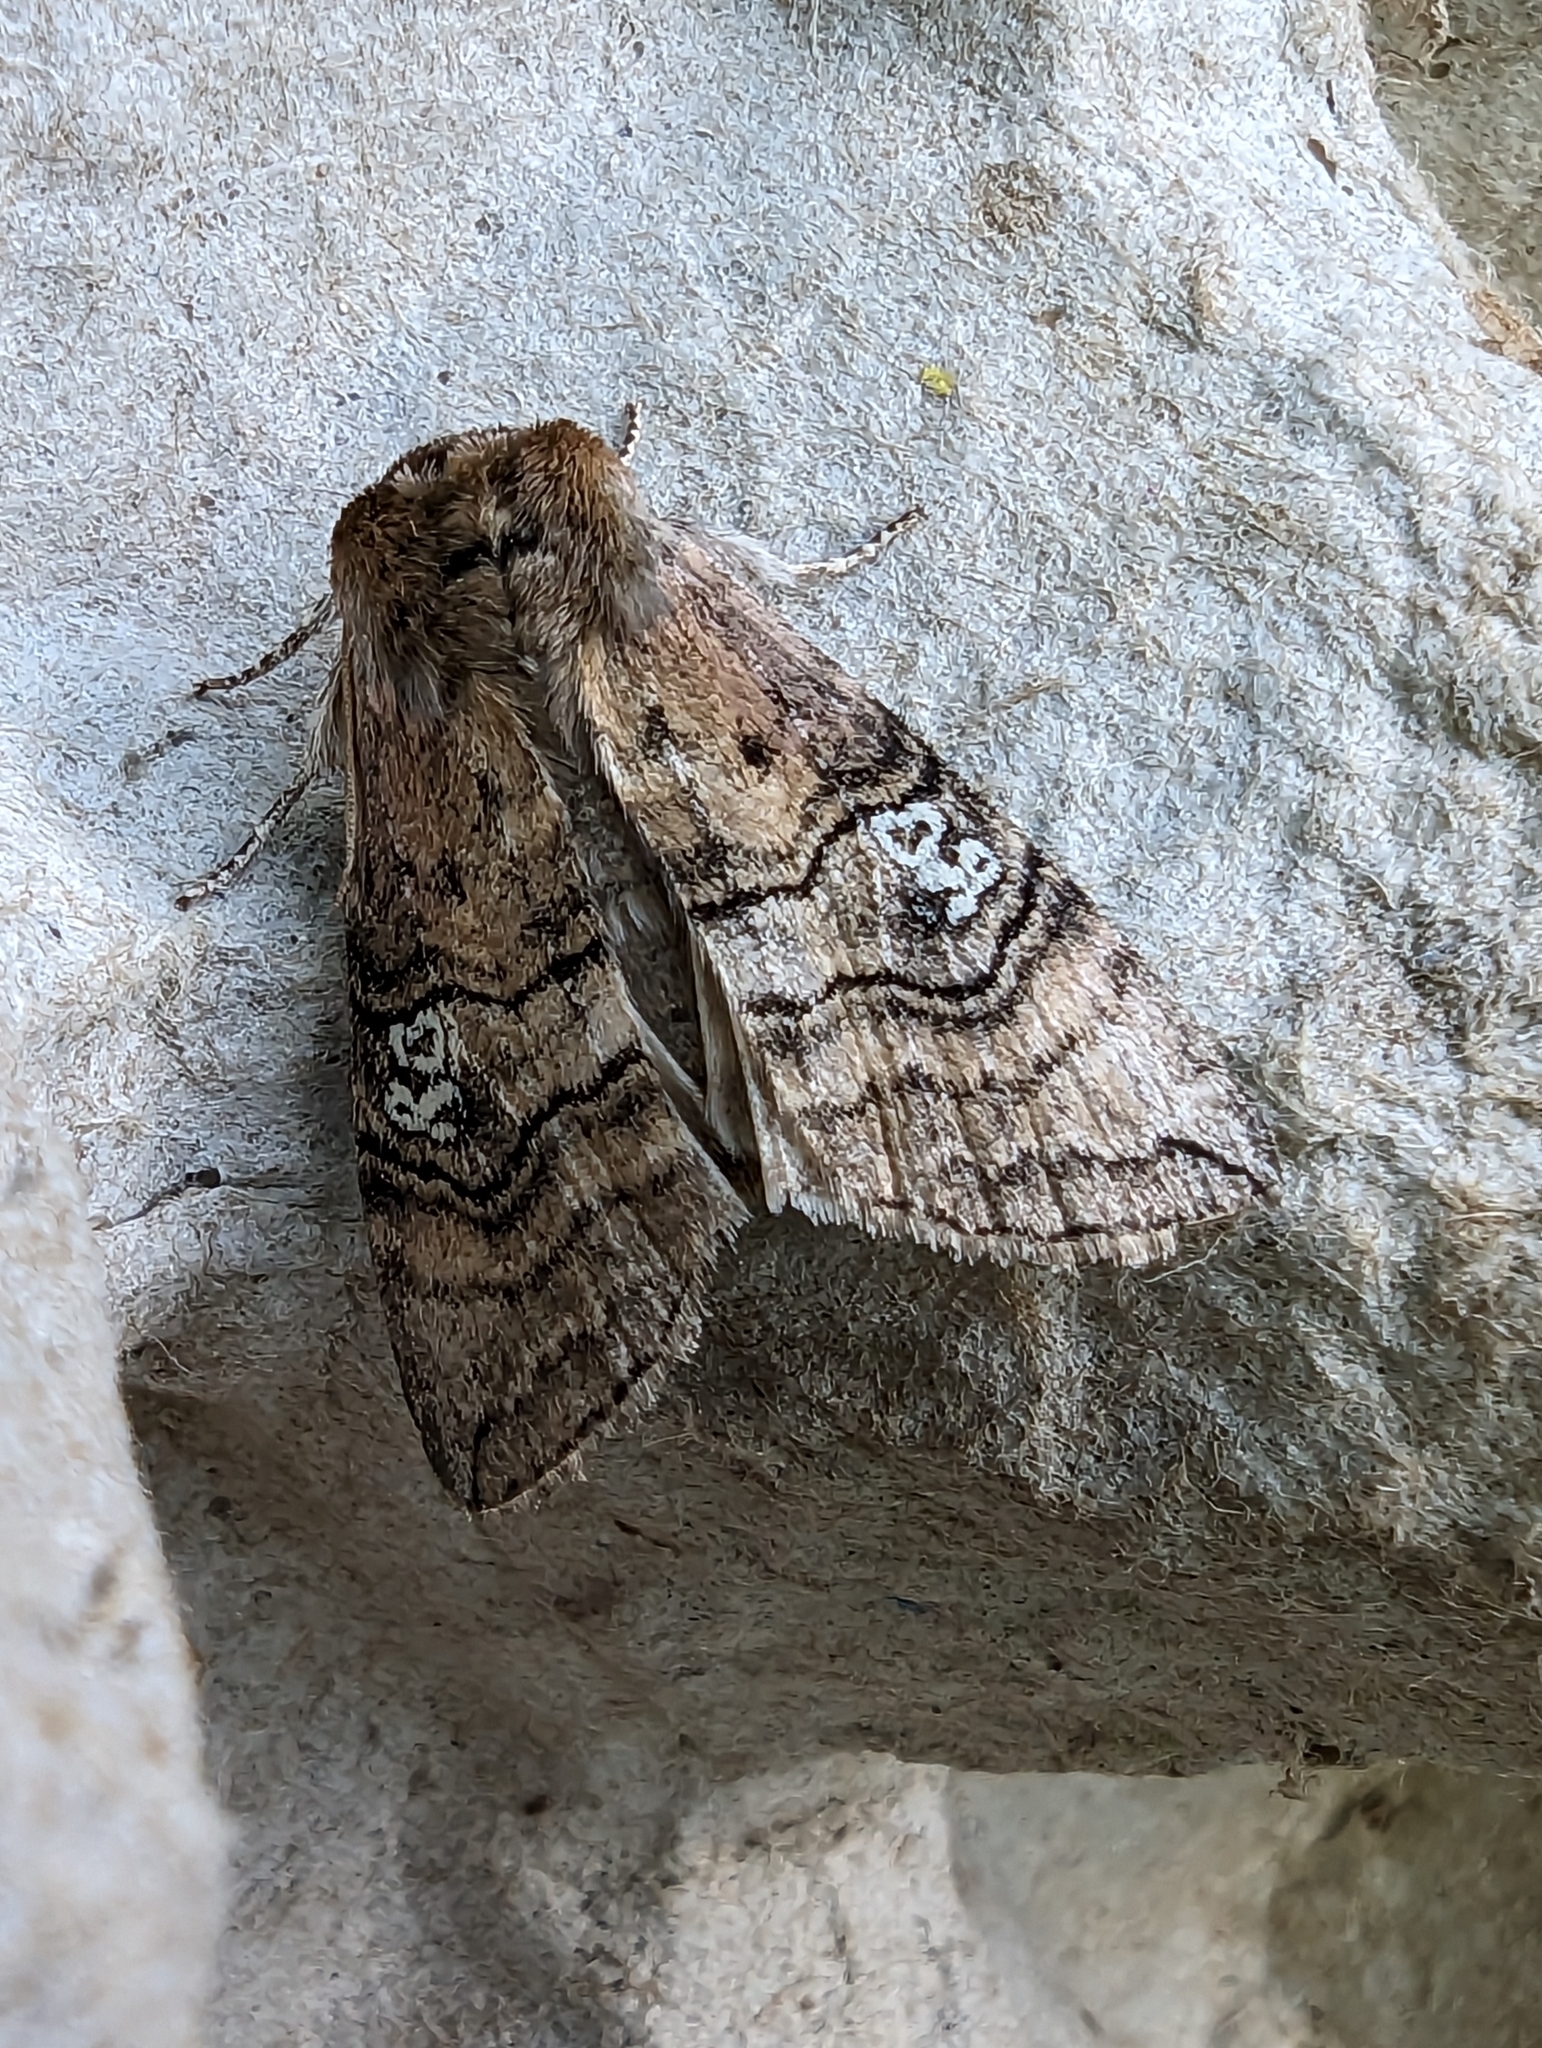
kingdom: Animalia
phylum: Arthropoda
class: Insecta
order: Lepidoptera
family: Drepanidae
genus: Tethea
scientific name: Tethea ocularis
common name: Figure of eighty
